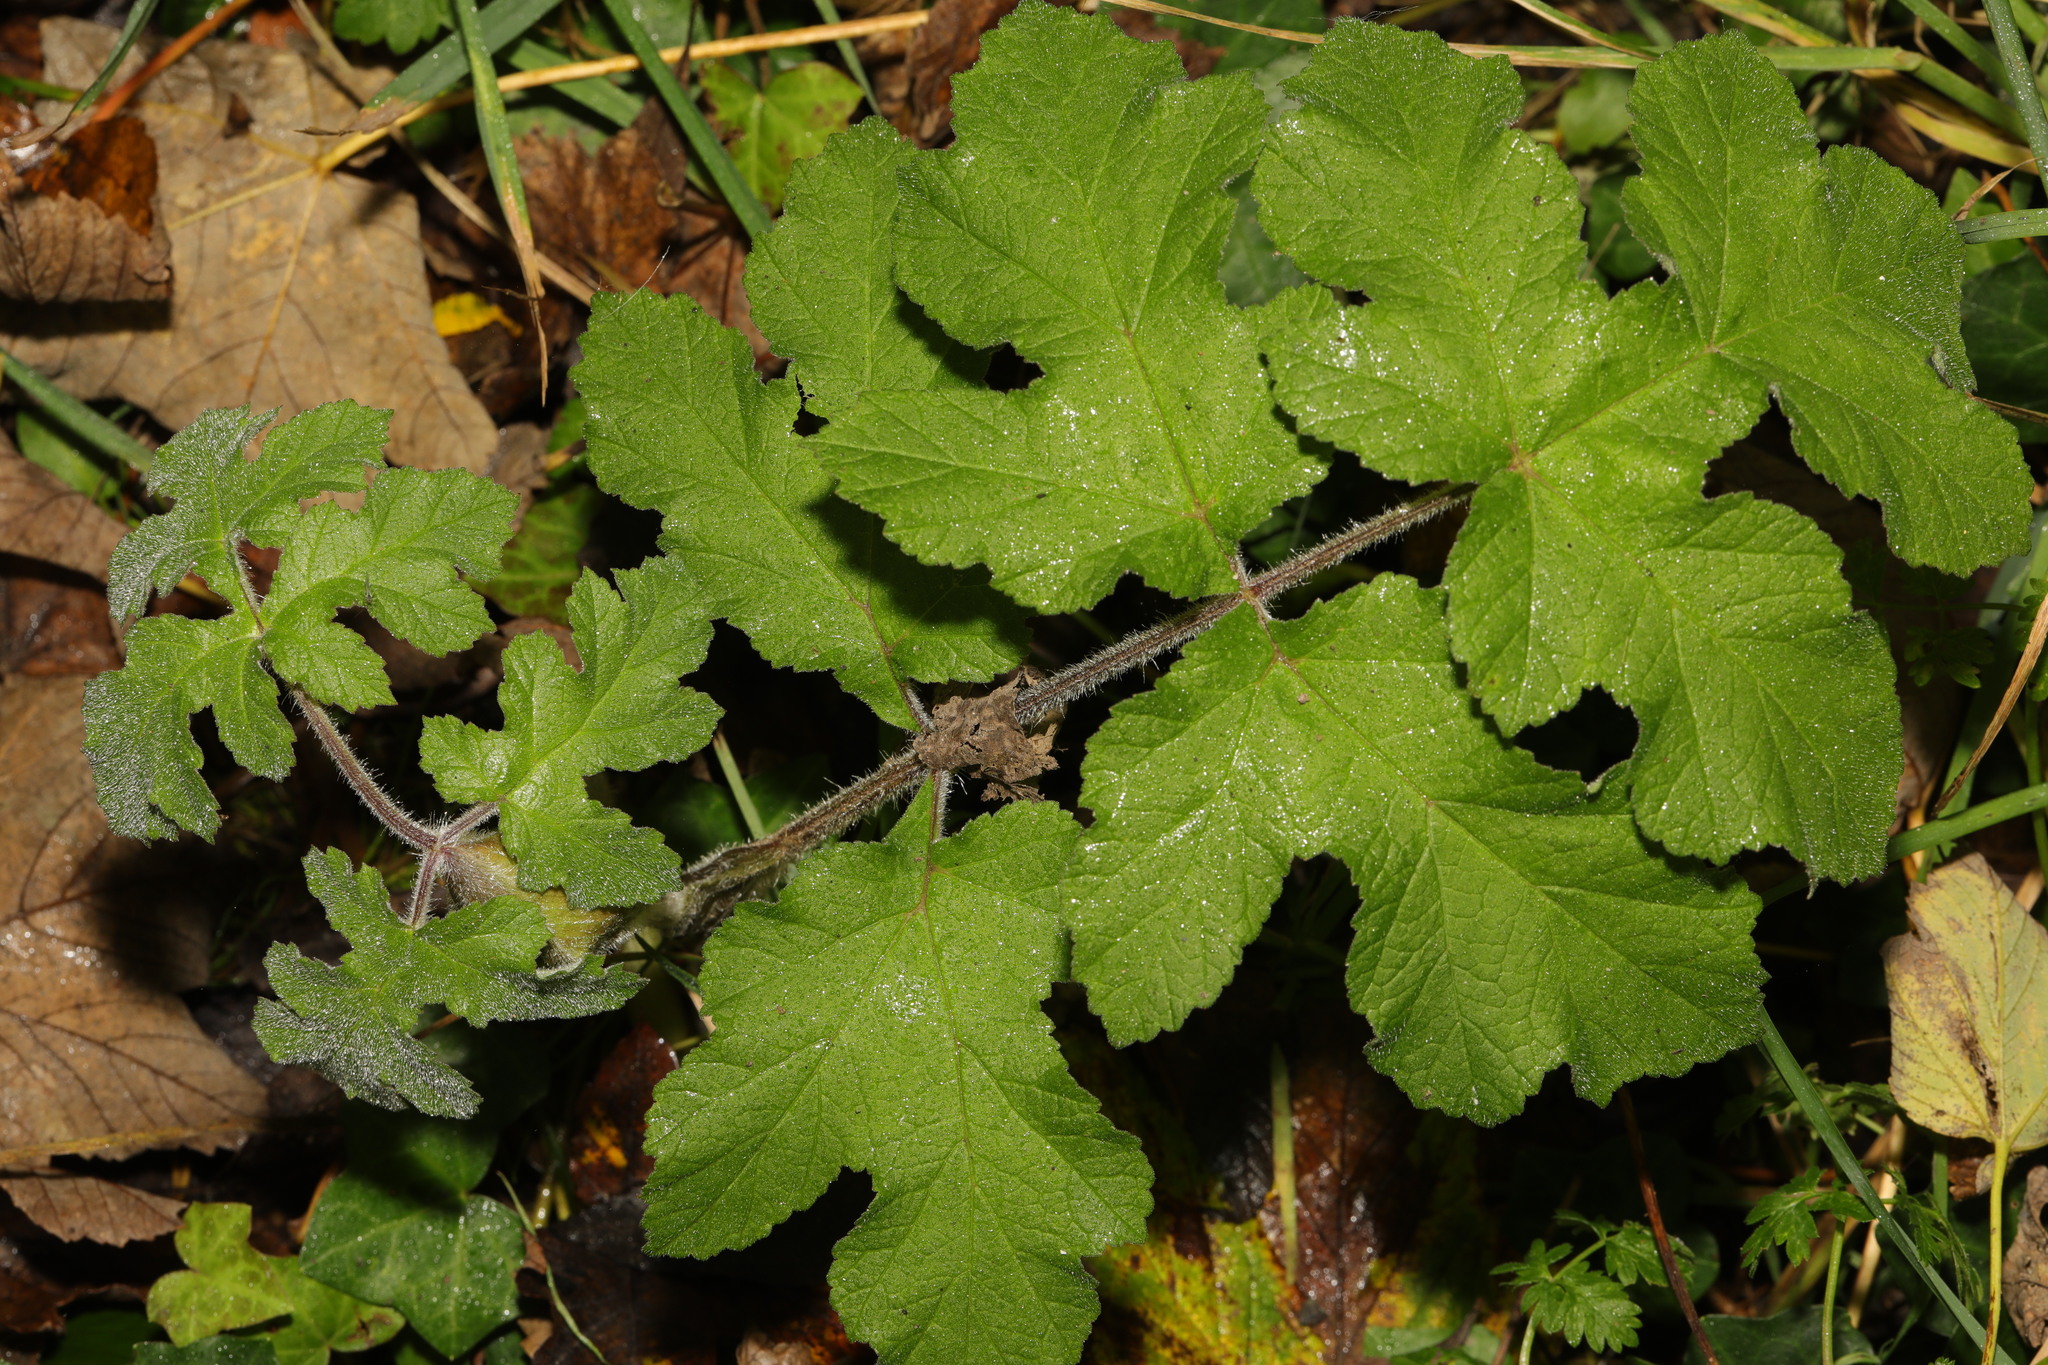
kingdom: Plantae
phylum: Tracheophyta
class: Magnoliopsida
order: Apiales
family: Apiaceae
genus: Heracleum
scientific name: Heracleum sphondylium
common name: Hogweed
